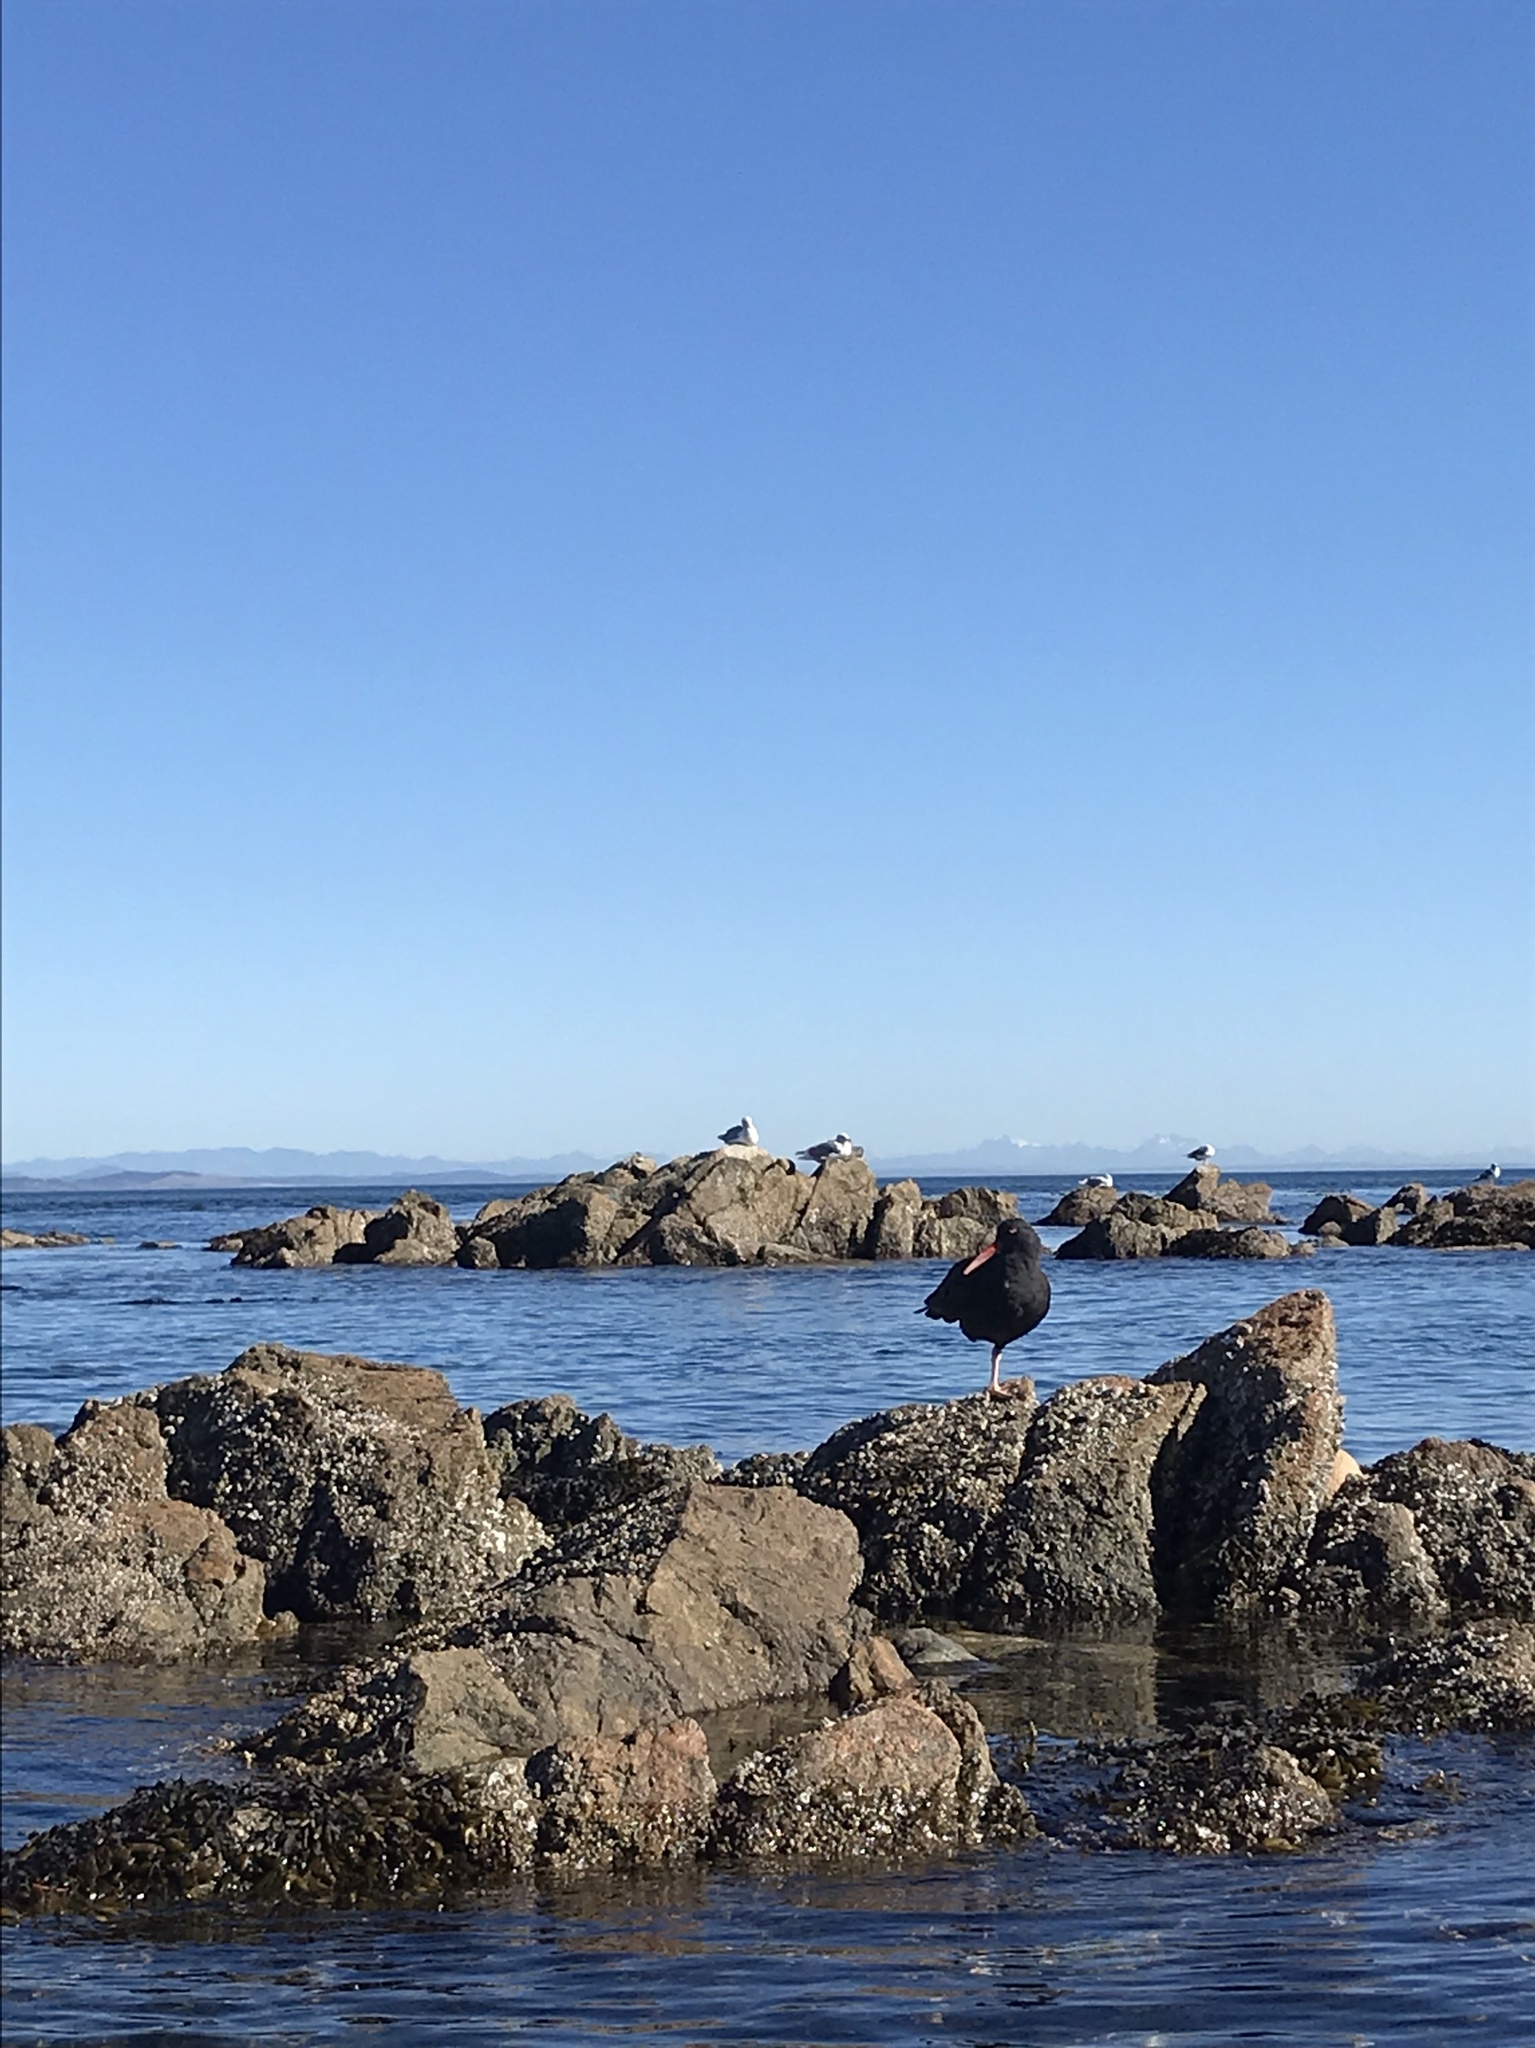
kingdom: Animalia
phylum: Chordata
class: Aves
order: Charadriiformes
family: Haematopodidae
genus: Haematopus
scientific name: Haematopus bachmani
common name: Black oystercatcher
